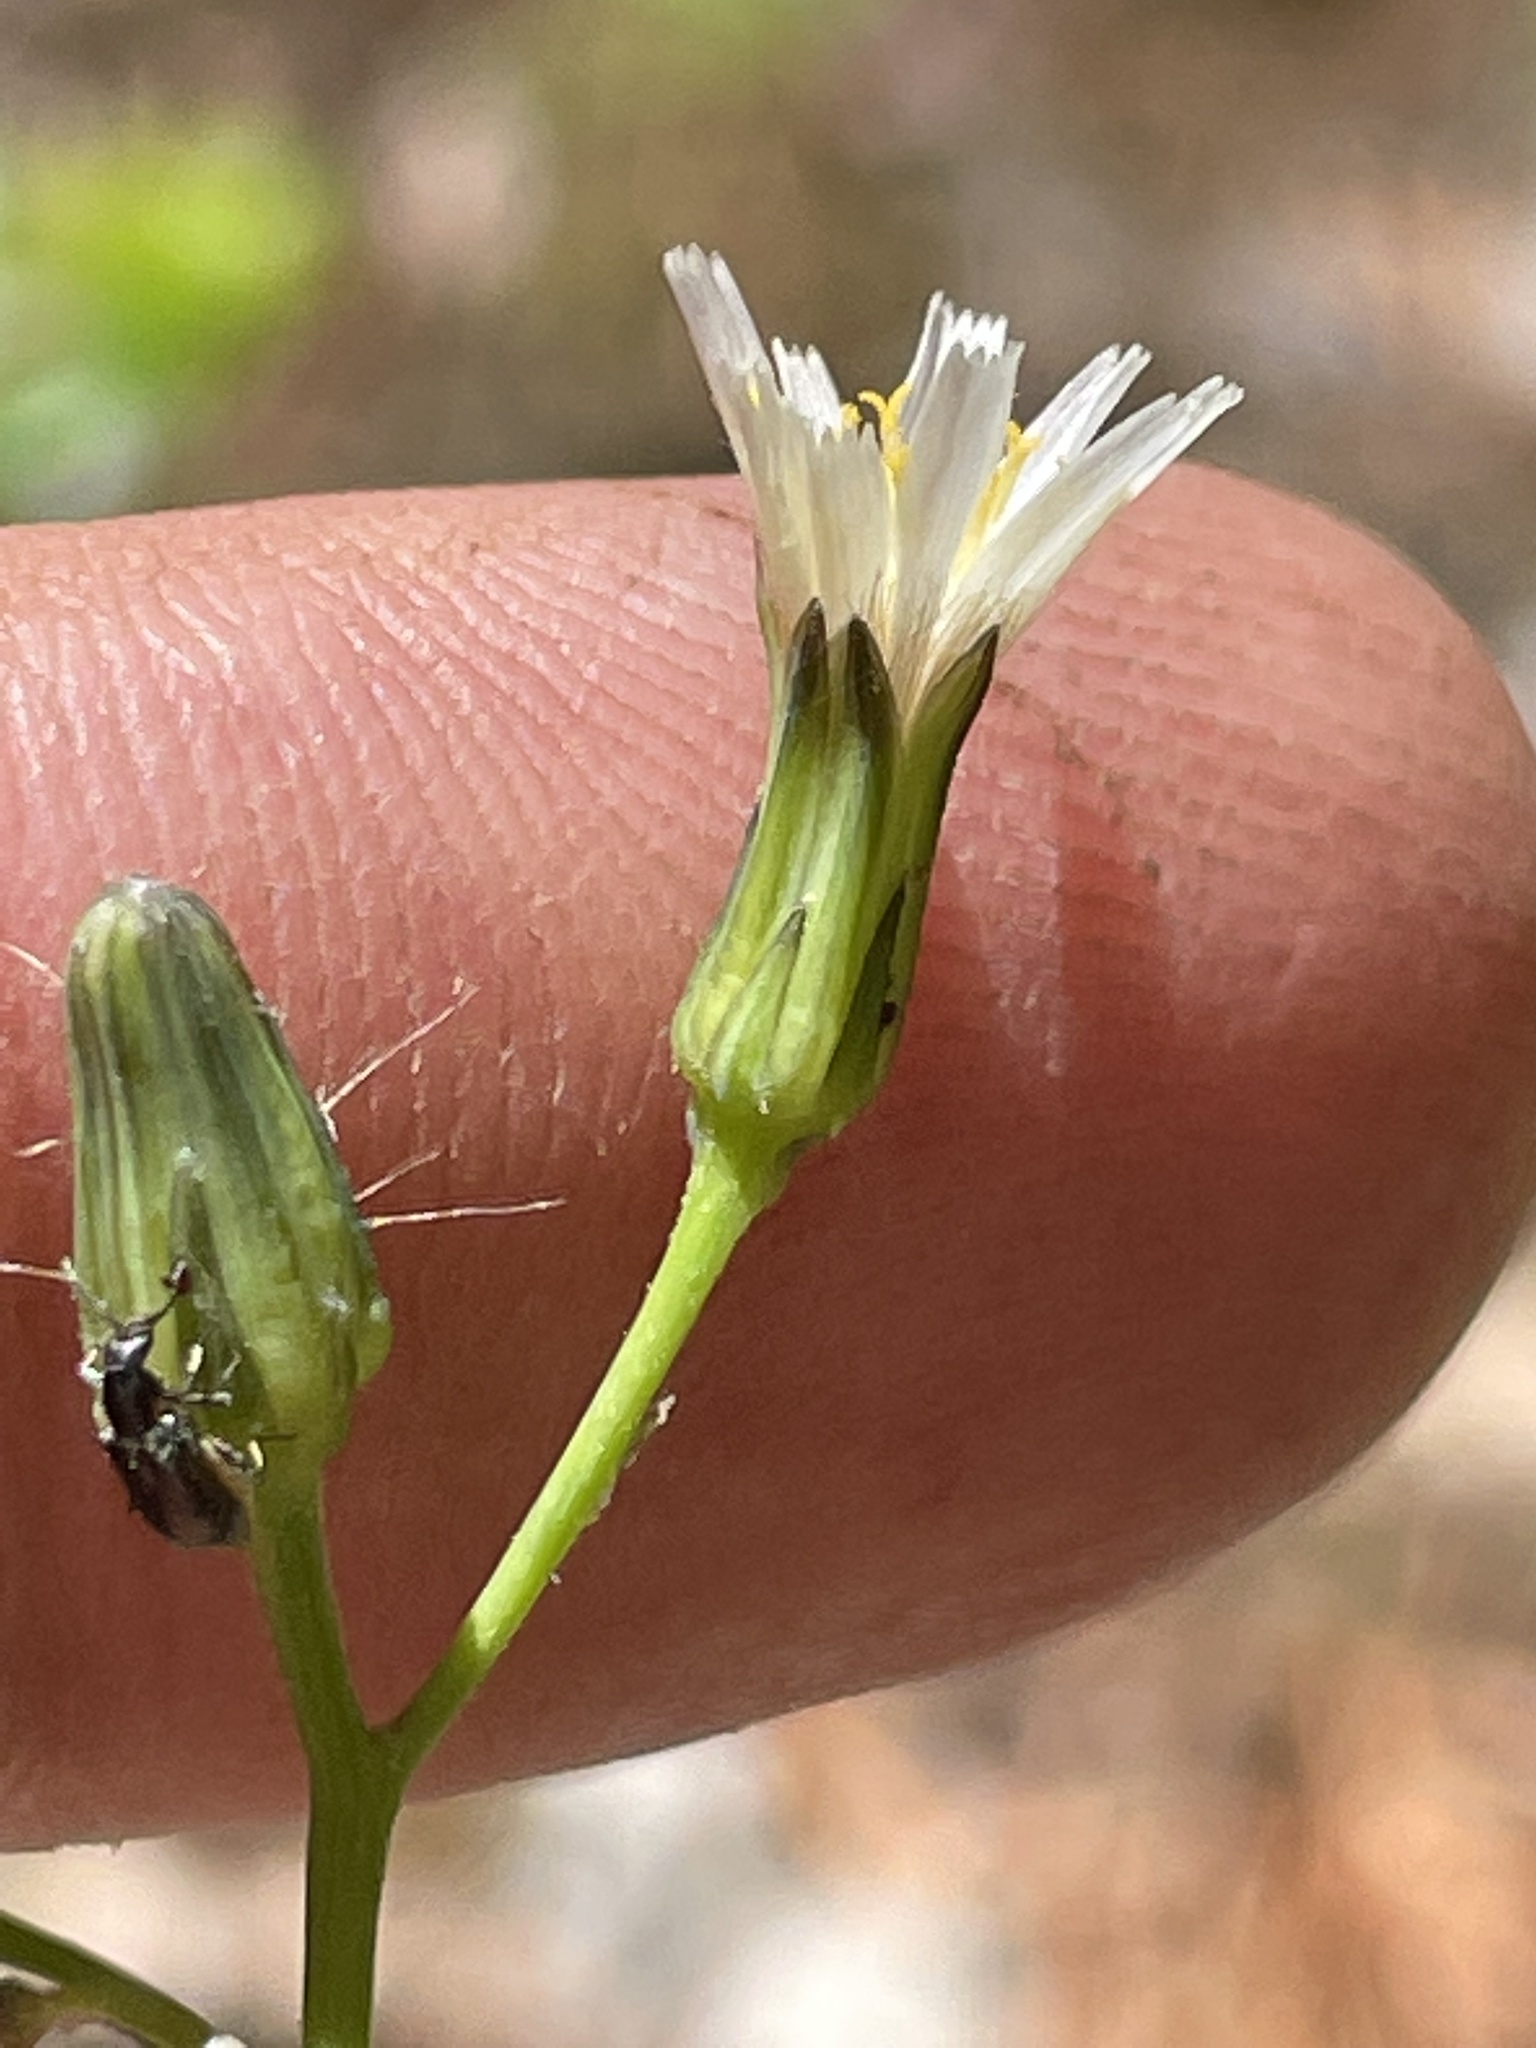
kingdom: Plantae
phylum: Tracheophyta
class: Magnoliopsida
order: Asterales
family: Asteraceae
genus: Hieracium
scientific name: Hieracium albiflorum
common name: White hawkweed
